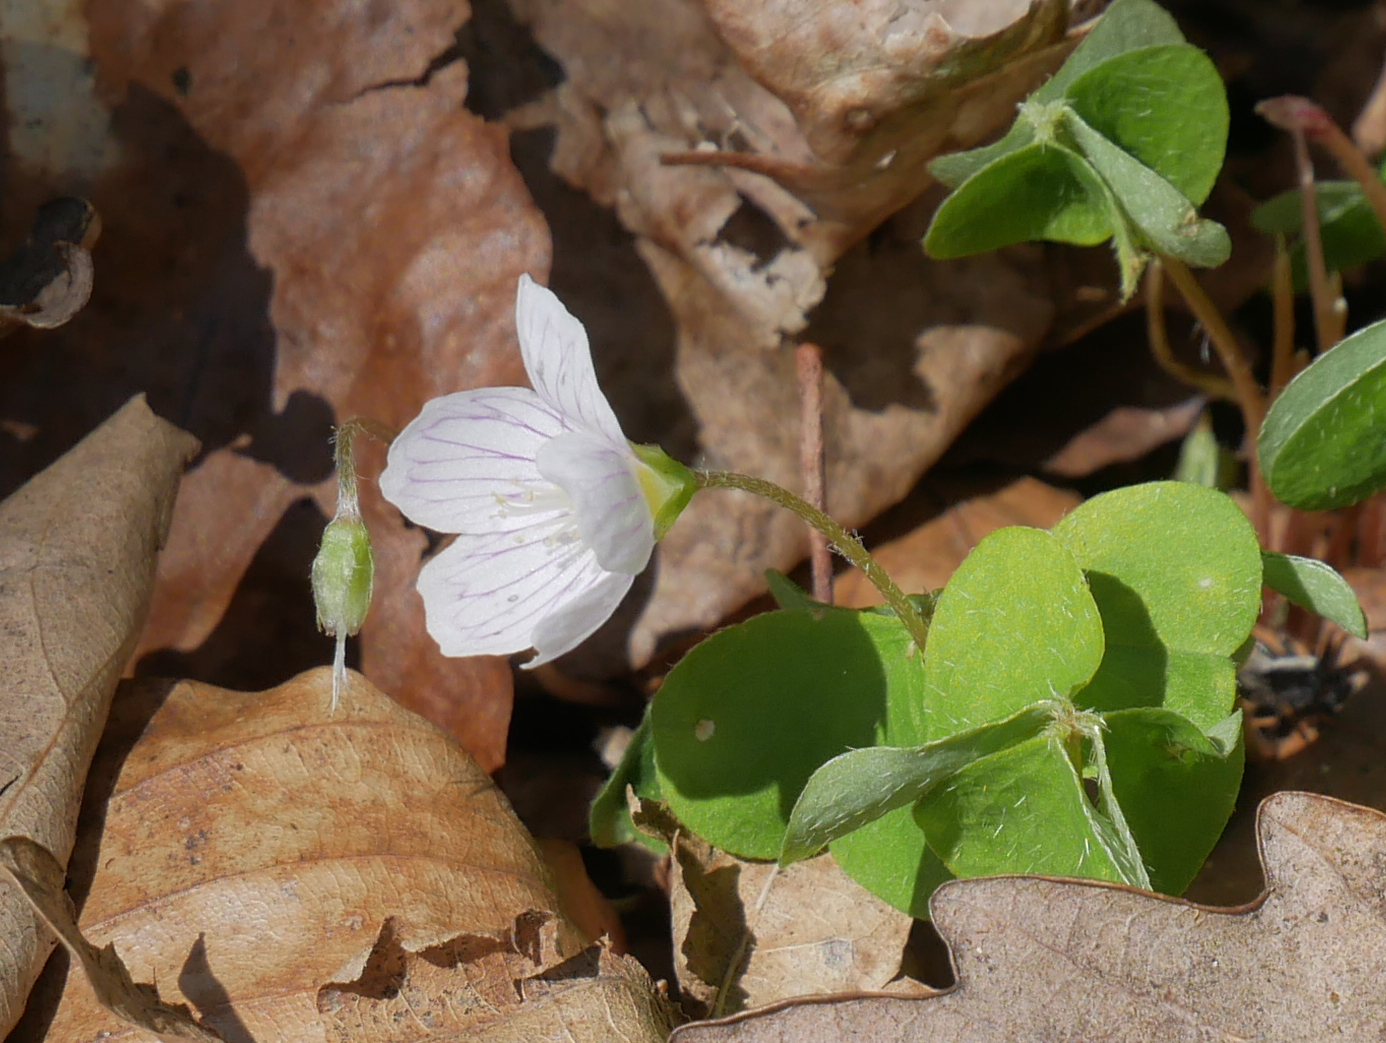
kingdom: Plantae
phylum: Tracheophyta
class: Magnoliopsida
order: Oxalidales
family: Oxalidaceae
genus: Oxalis
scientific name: Oxalis acetosella
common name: Wood-sorrel
